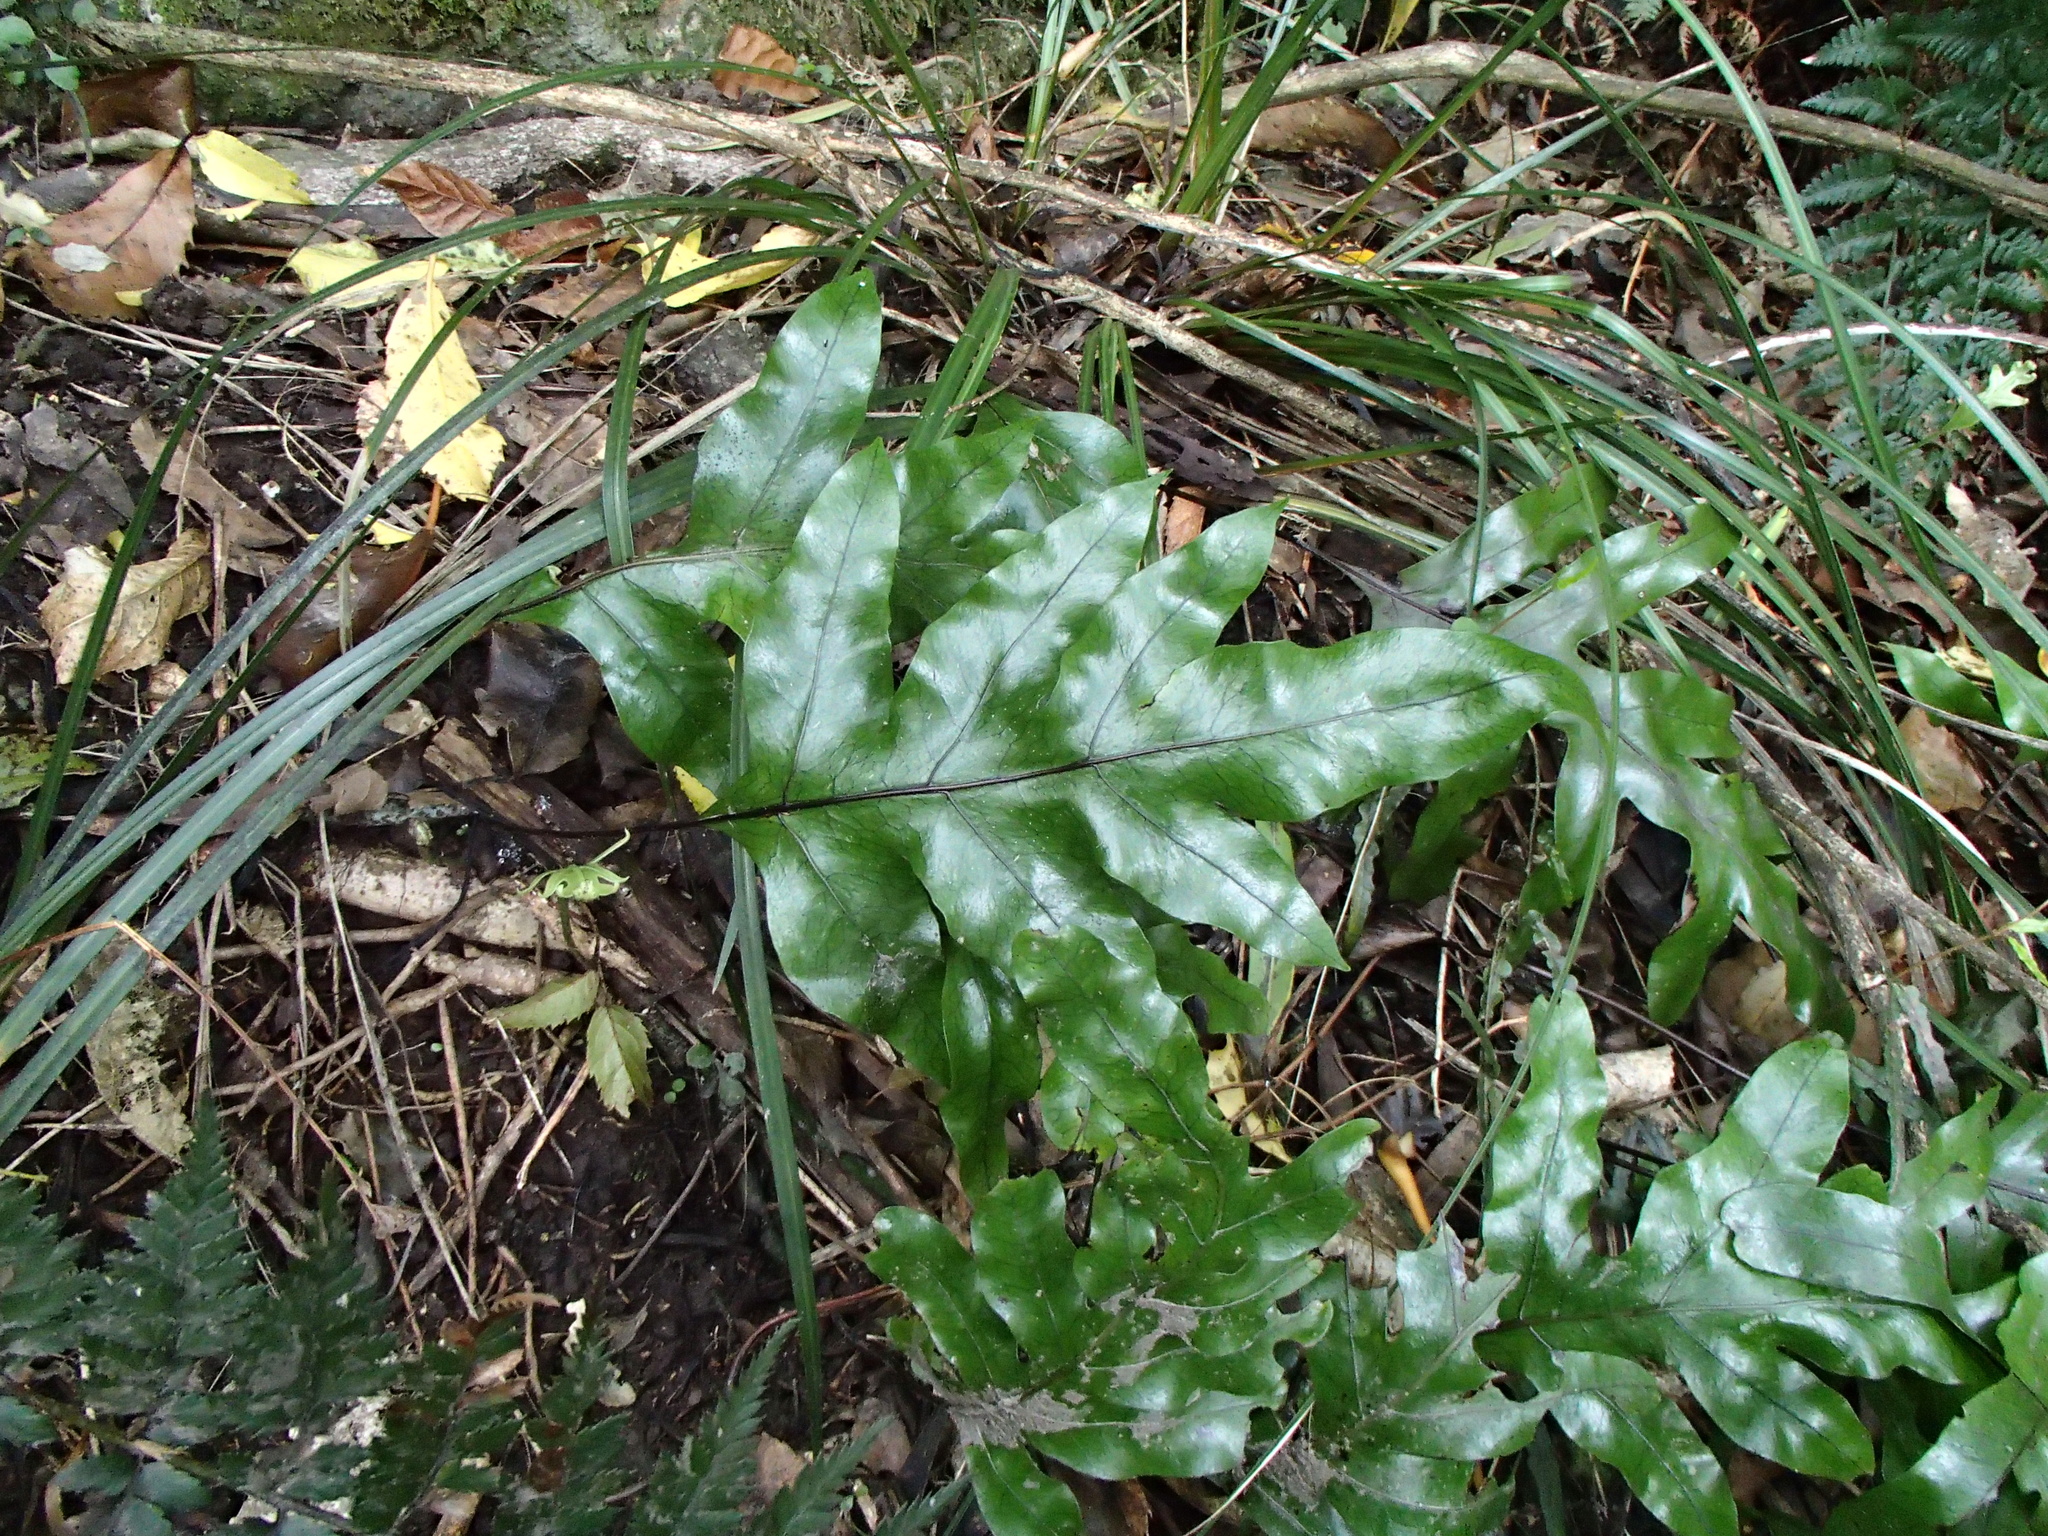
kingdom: Plantae
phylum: Tracheophyta
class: Polypodiopsida
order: Polypodiales
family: Polypodiaceae
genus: Lecanopteris
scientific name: Lecanopteris pustulata
